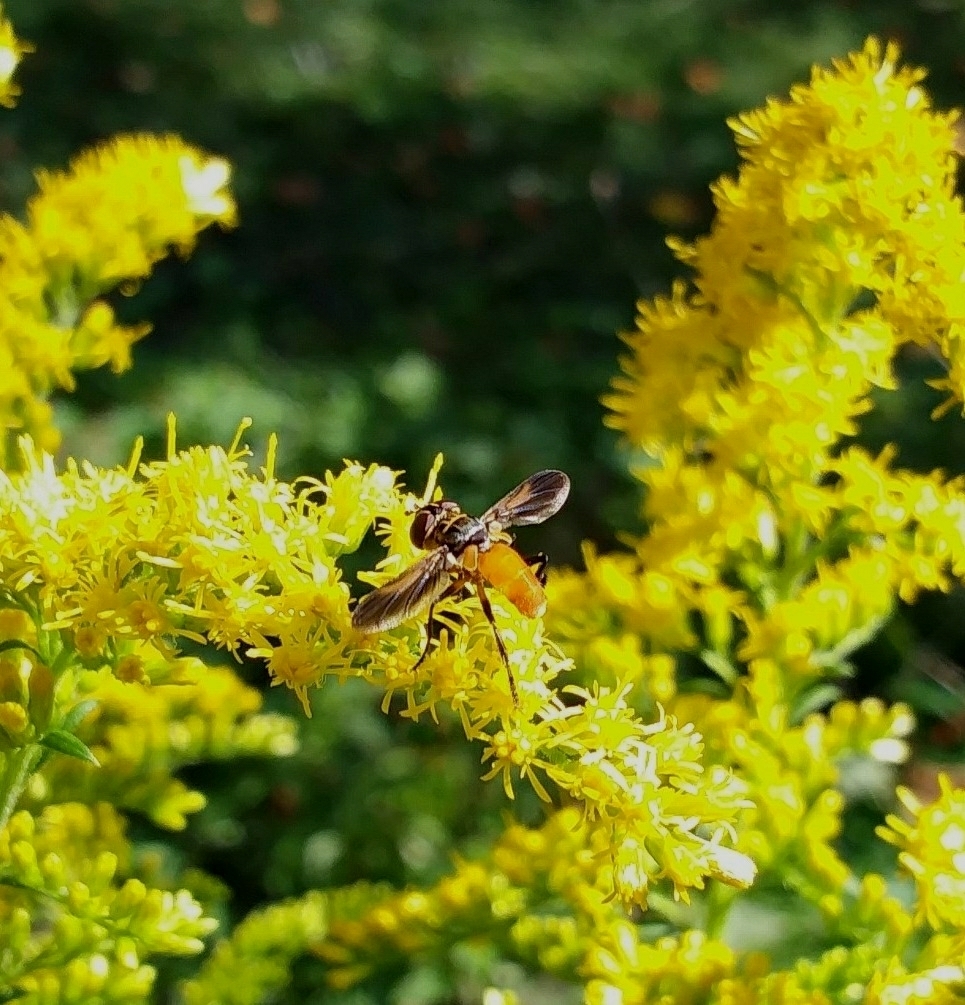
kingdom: Animalia
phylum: Arthropoda
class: Insecta
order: Diptera
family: Tachinidae
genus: Trichopoda
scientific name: Trichopoda pennipes
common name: Tachinid fly
